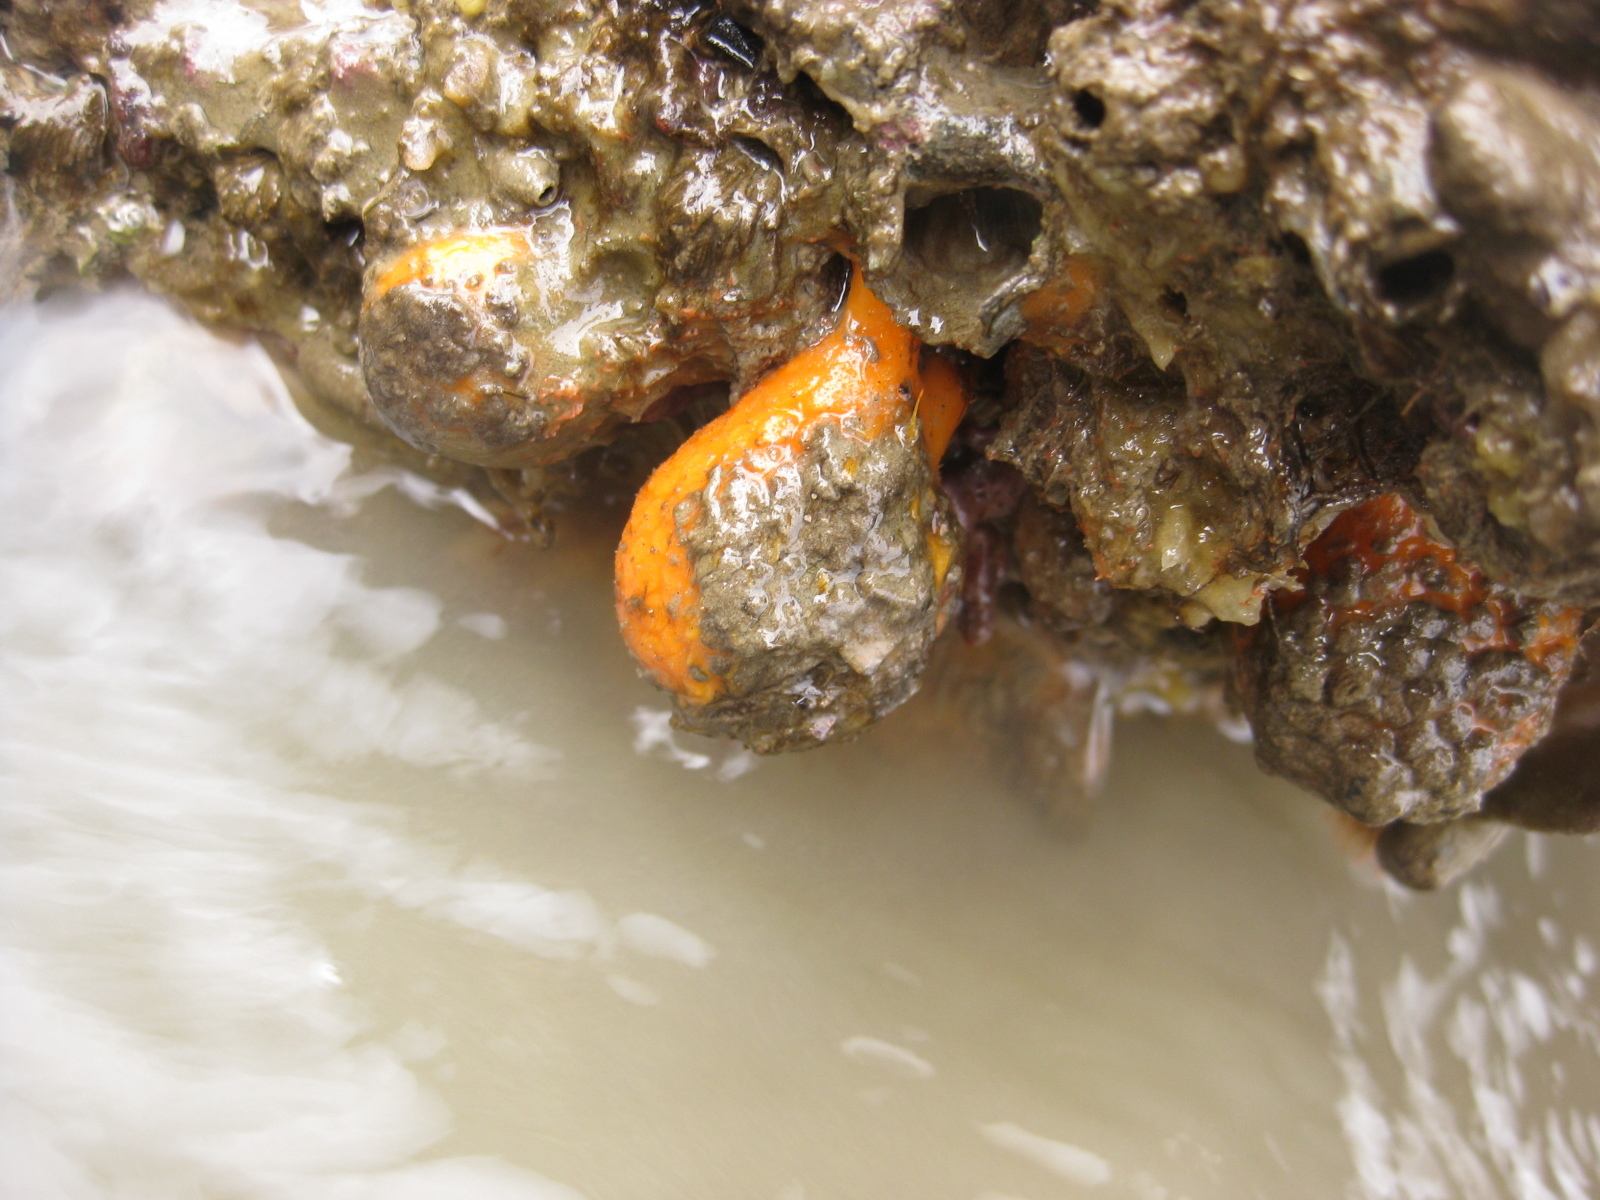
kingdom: Animalia
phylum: Porifera
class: Demospongiae
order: Tethyida
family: Tethyidae
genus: Tethya
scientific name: Tethya burtoni
